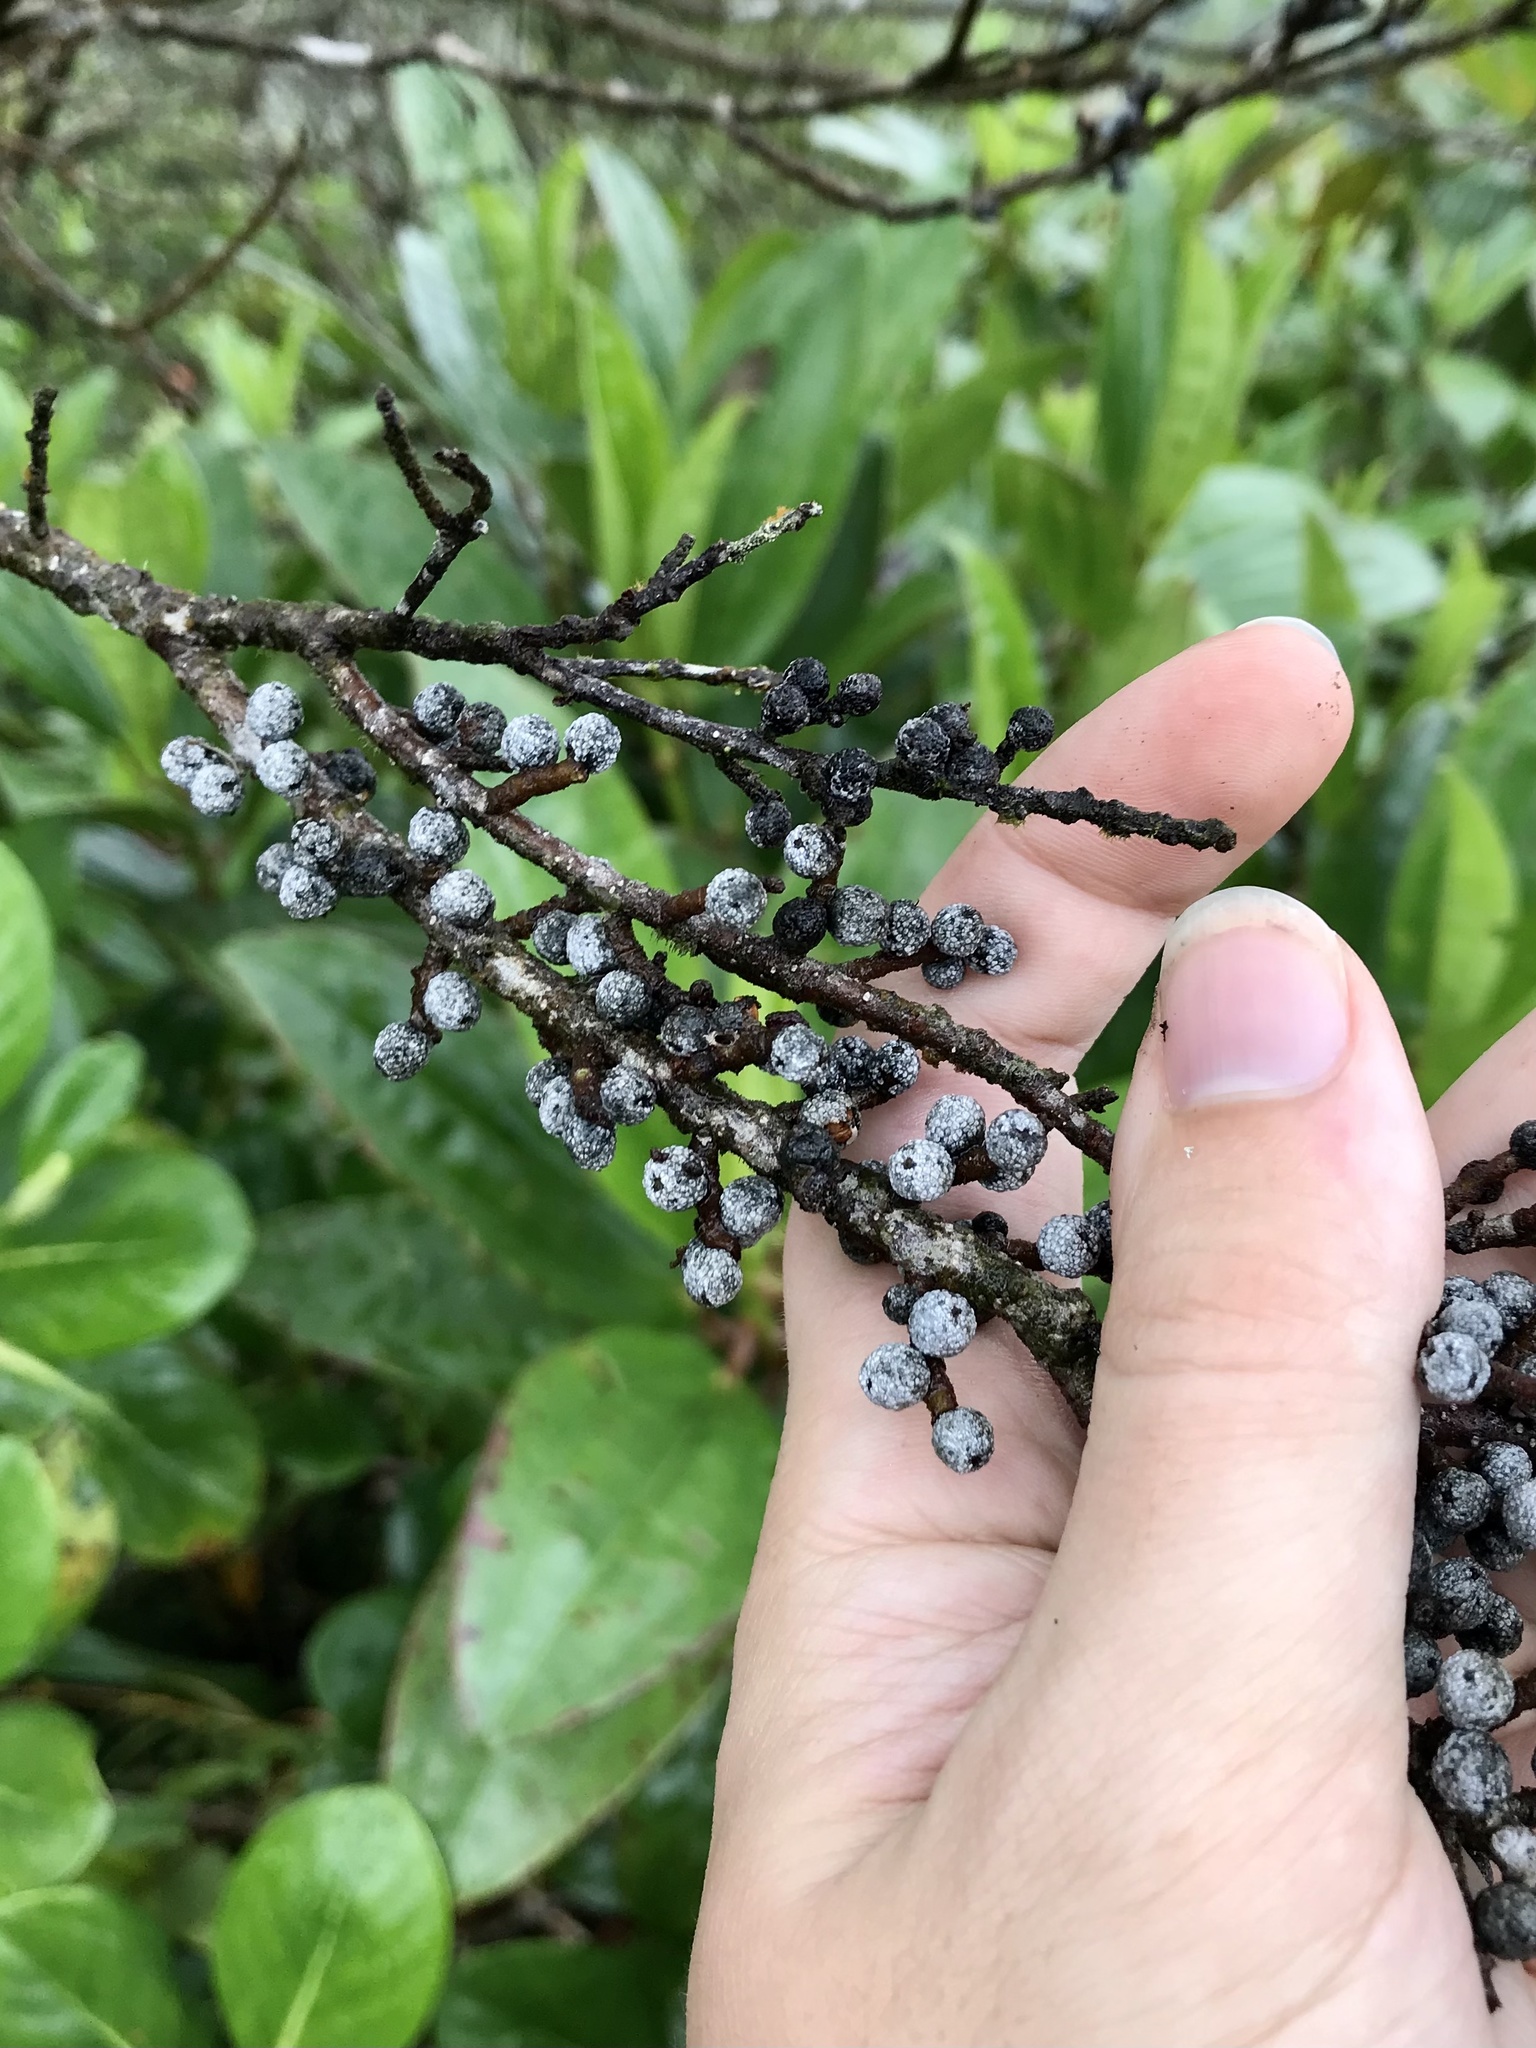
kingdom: Plantae
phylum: Tracheophyta
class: Magnoliopsida
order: Fagales
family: Myricaceae
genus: Morella
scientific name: Morella cerifera
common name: Wax myrtle
